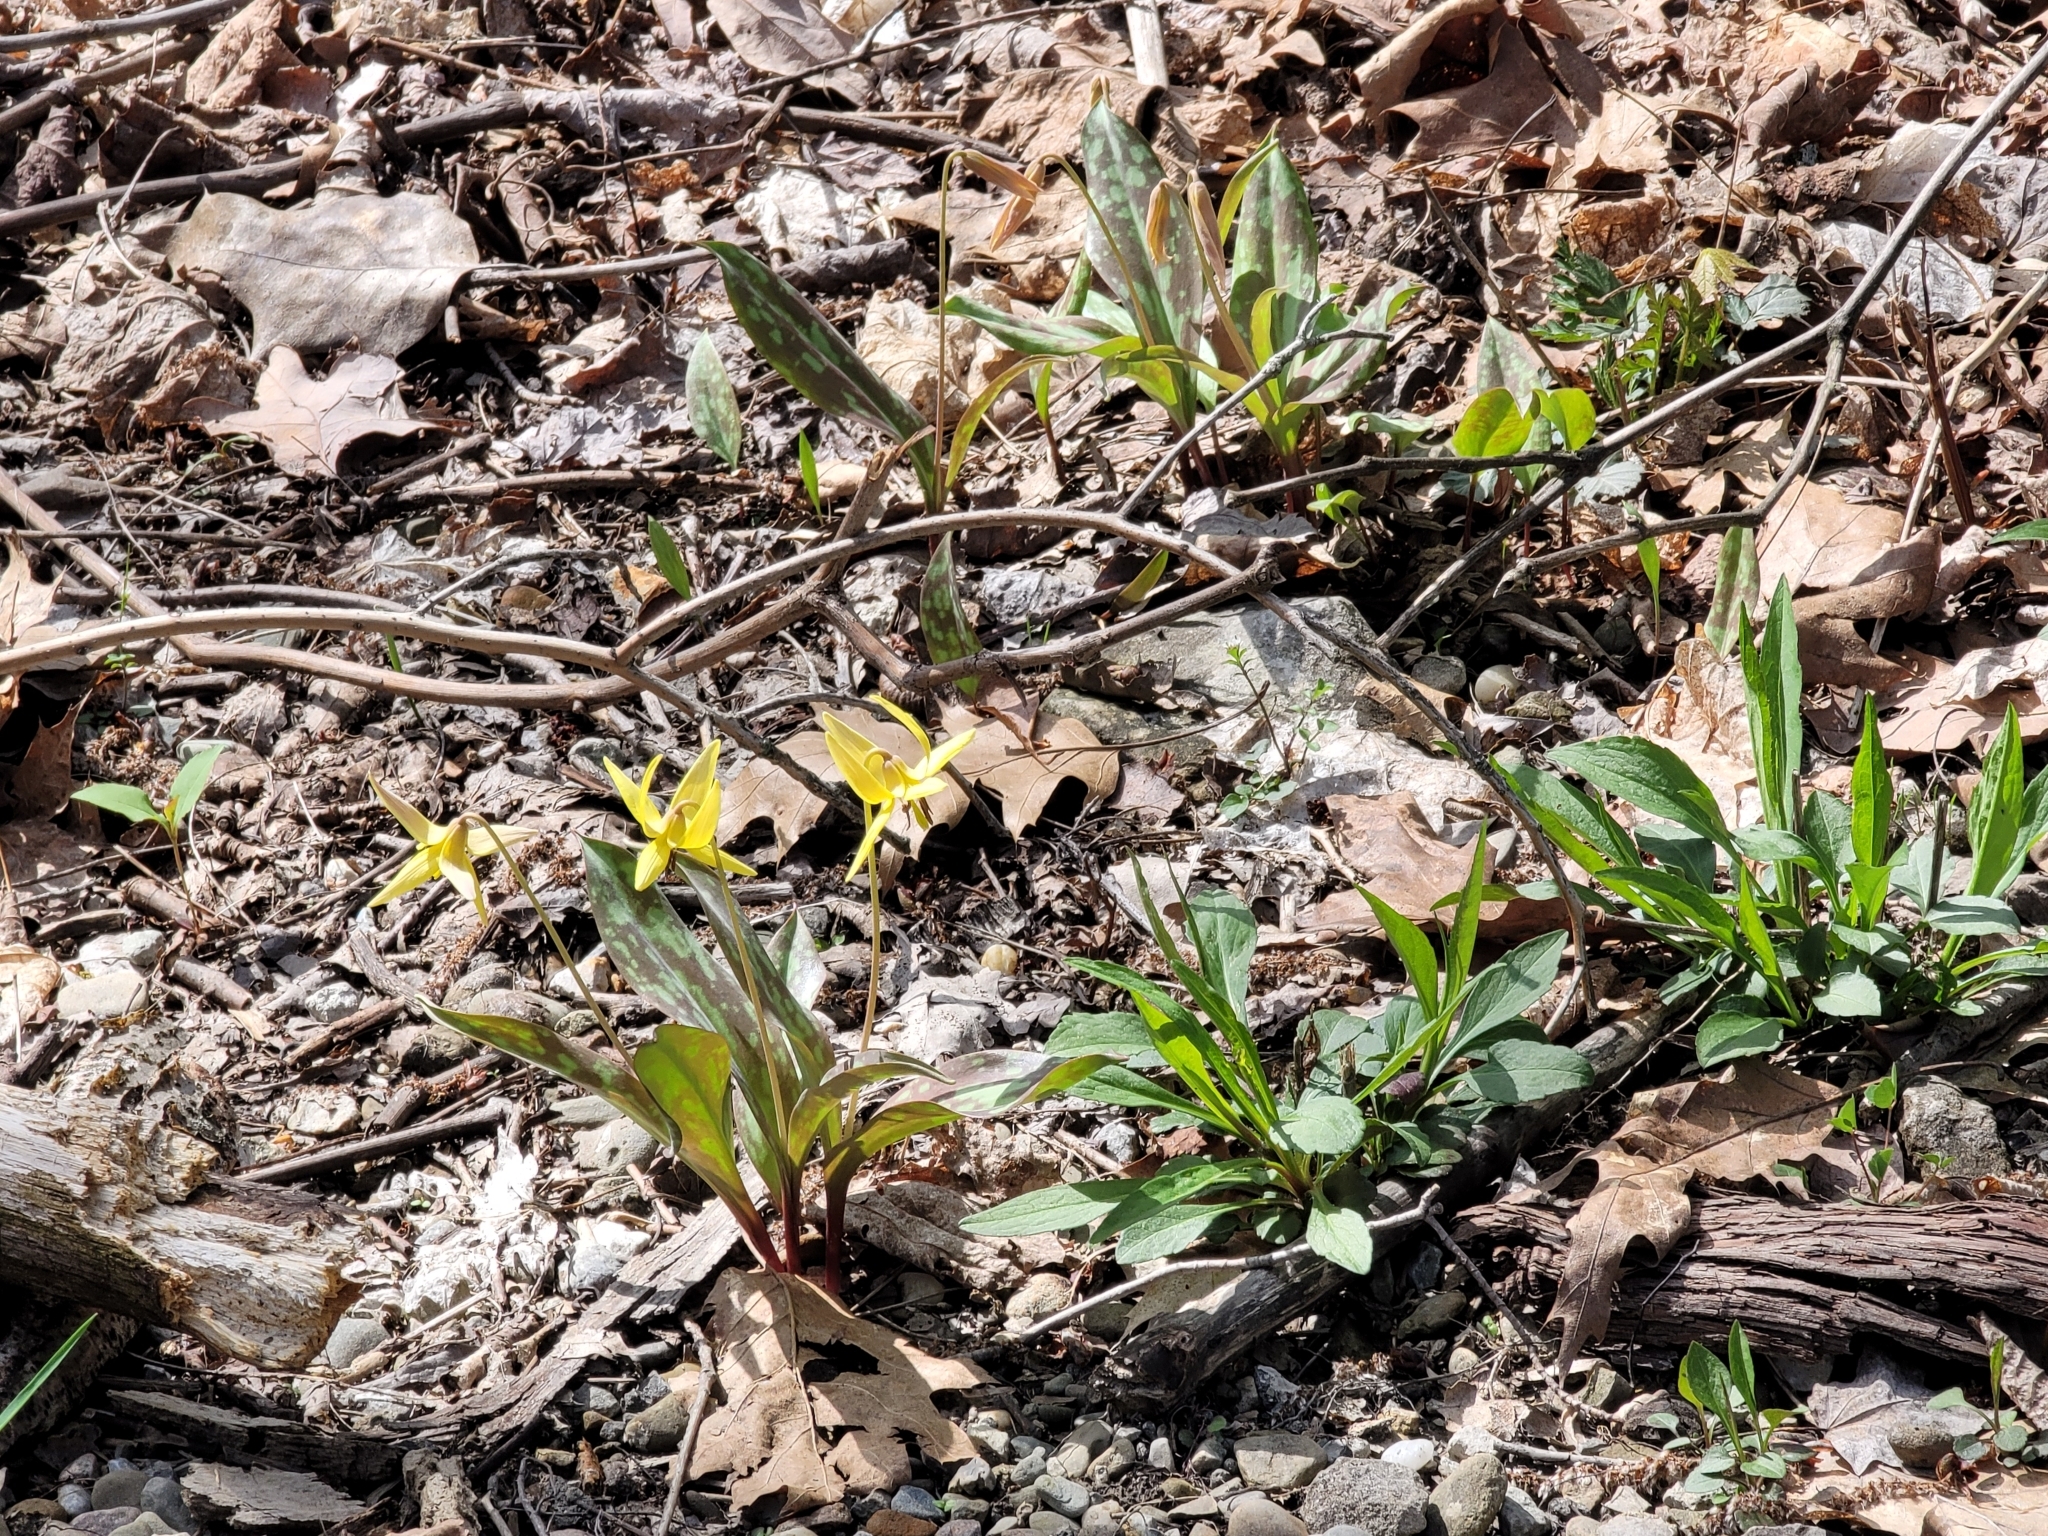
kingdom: Plantae
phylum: Tracheophyta
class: Liliopsida
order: Liliales
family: Liliaceae
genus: Erythronium
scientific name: Erythronium americanum
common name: Yellow adder's-tongue
